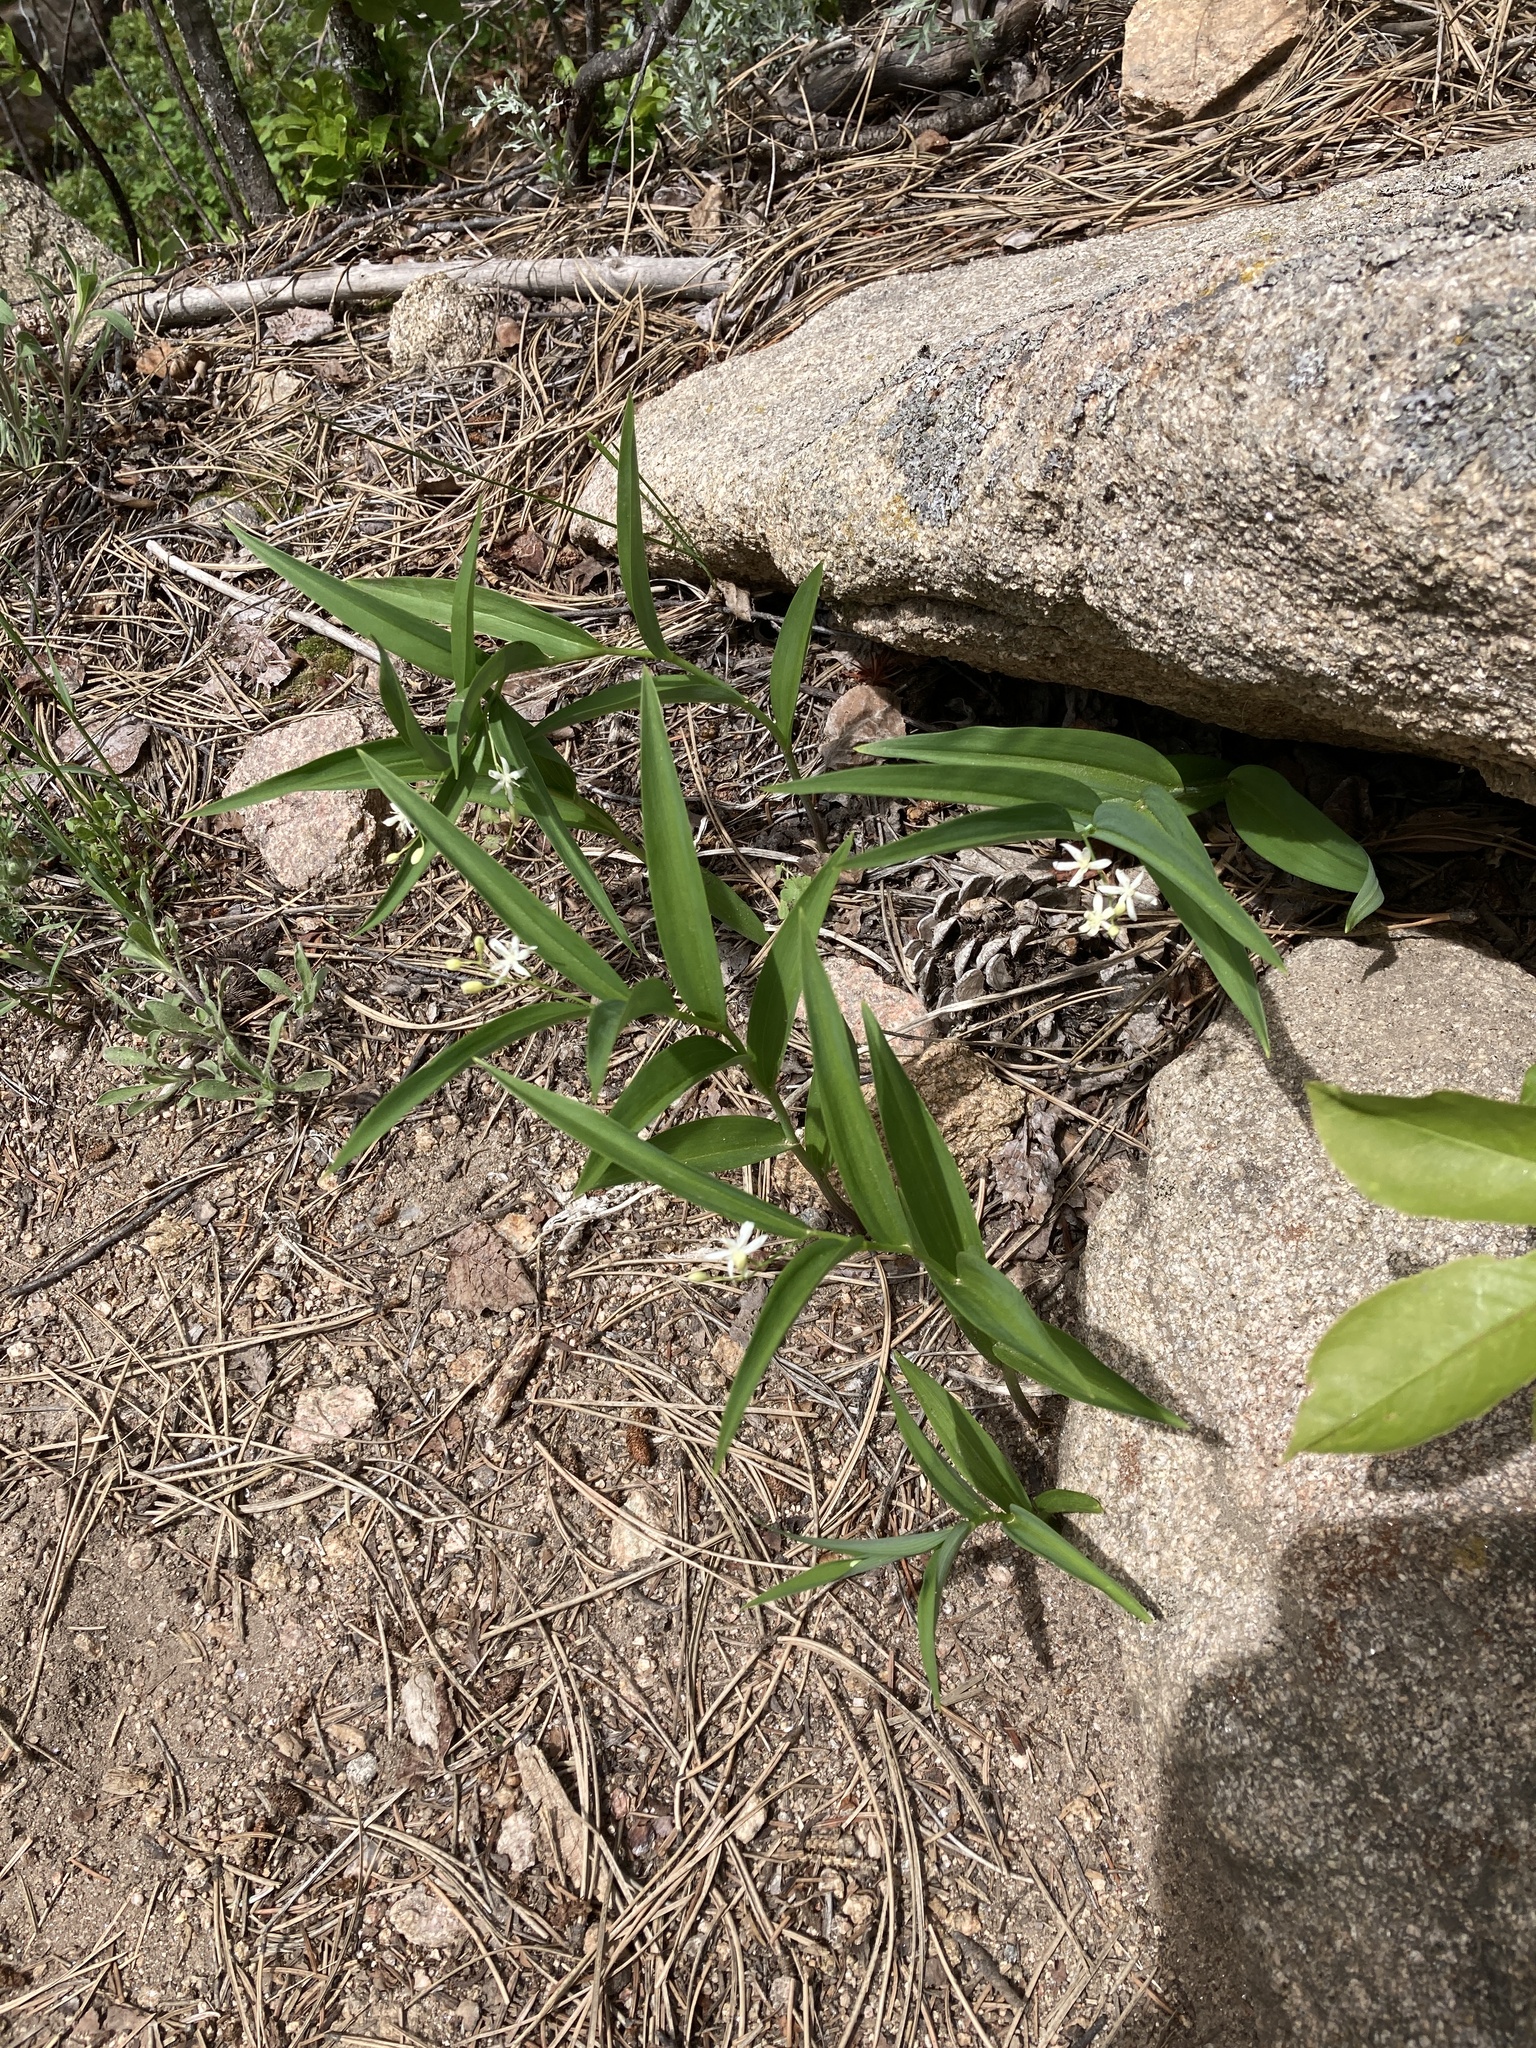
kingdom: Plantae
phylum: Tracheophyta
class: Liliopsida
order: Asparagales
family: Asparagaceae
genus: Maianthemum
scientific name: Maianthemum stellatum
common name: Little false solomon's seal
